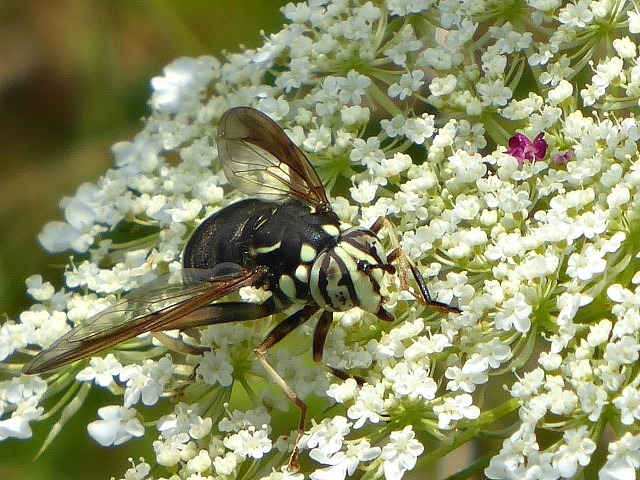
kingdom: Animalia
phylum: Arthropoda
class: Insecta
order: Diptera
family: Syrphidae
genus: Spilomyia
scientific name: Spilomyia fusca
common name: Bald-faced hornet fly
